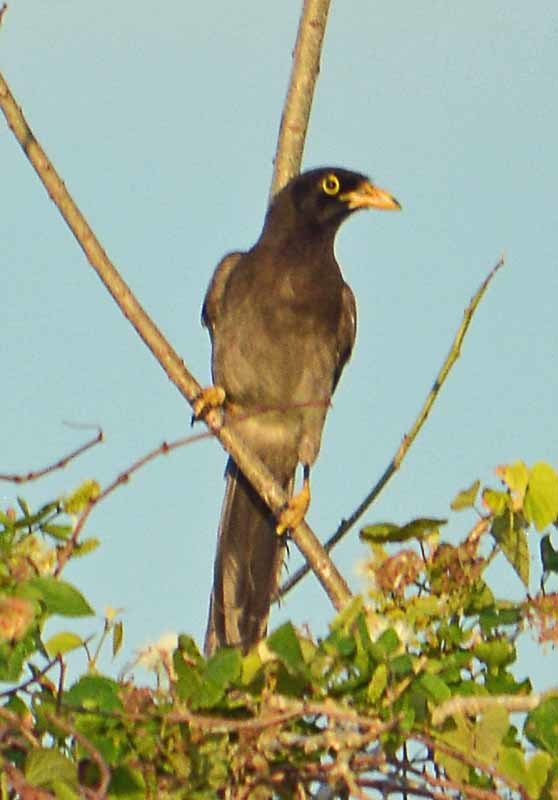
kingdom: Animalia
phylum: Chordata
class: Aves
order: Passeriformes
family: Corvidae
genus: Psilorhinus
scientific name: Psilorhinus morio
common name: Brown jay
